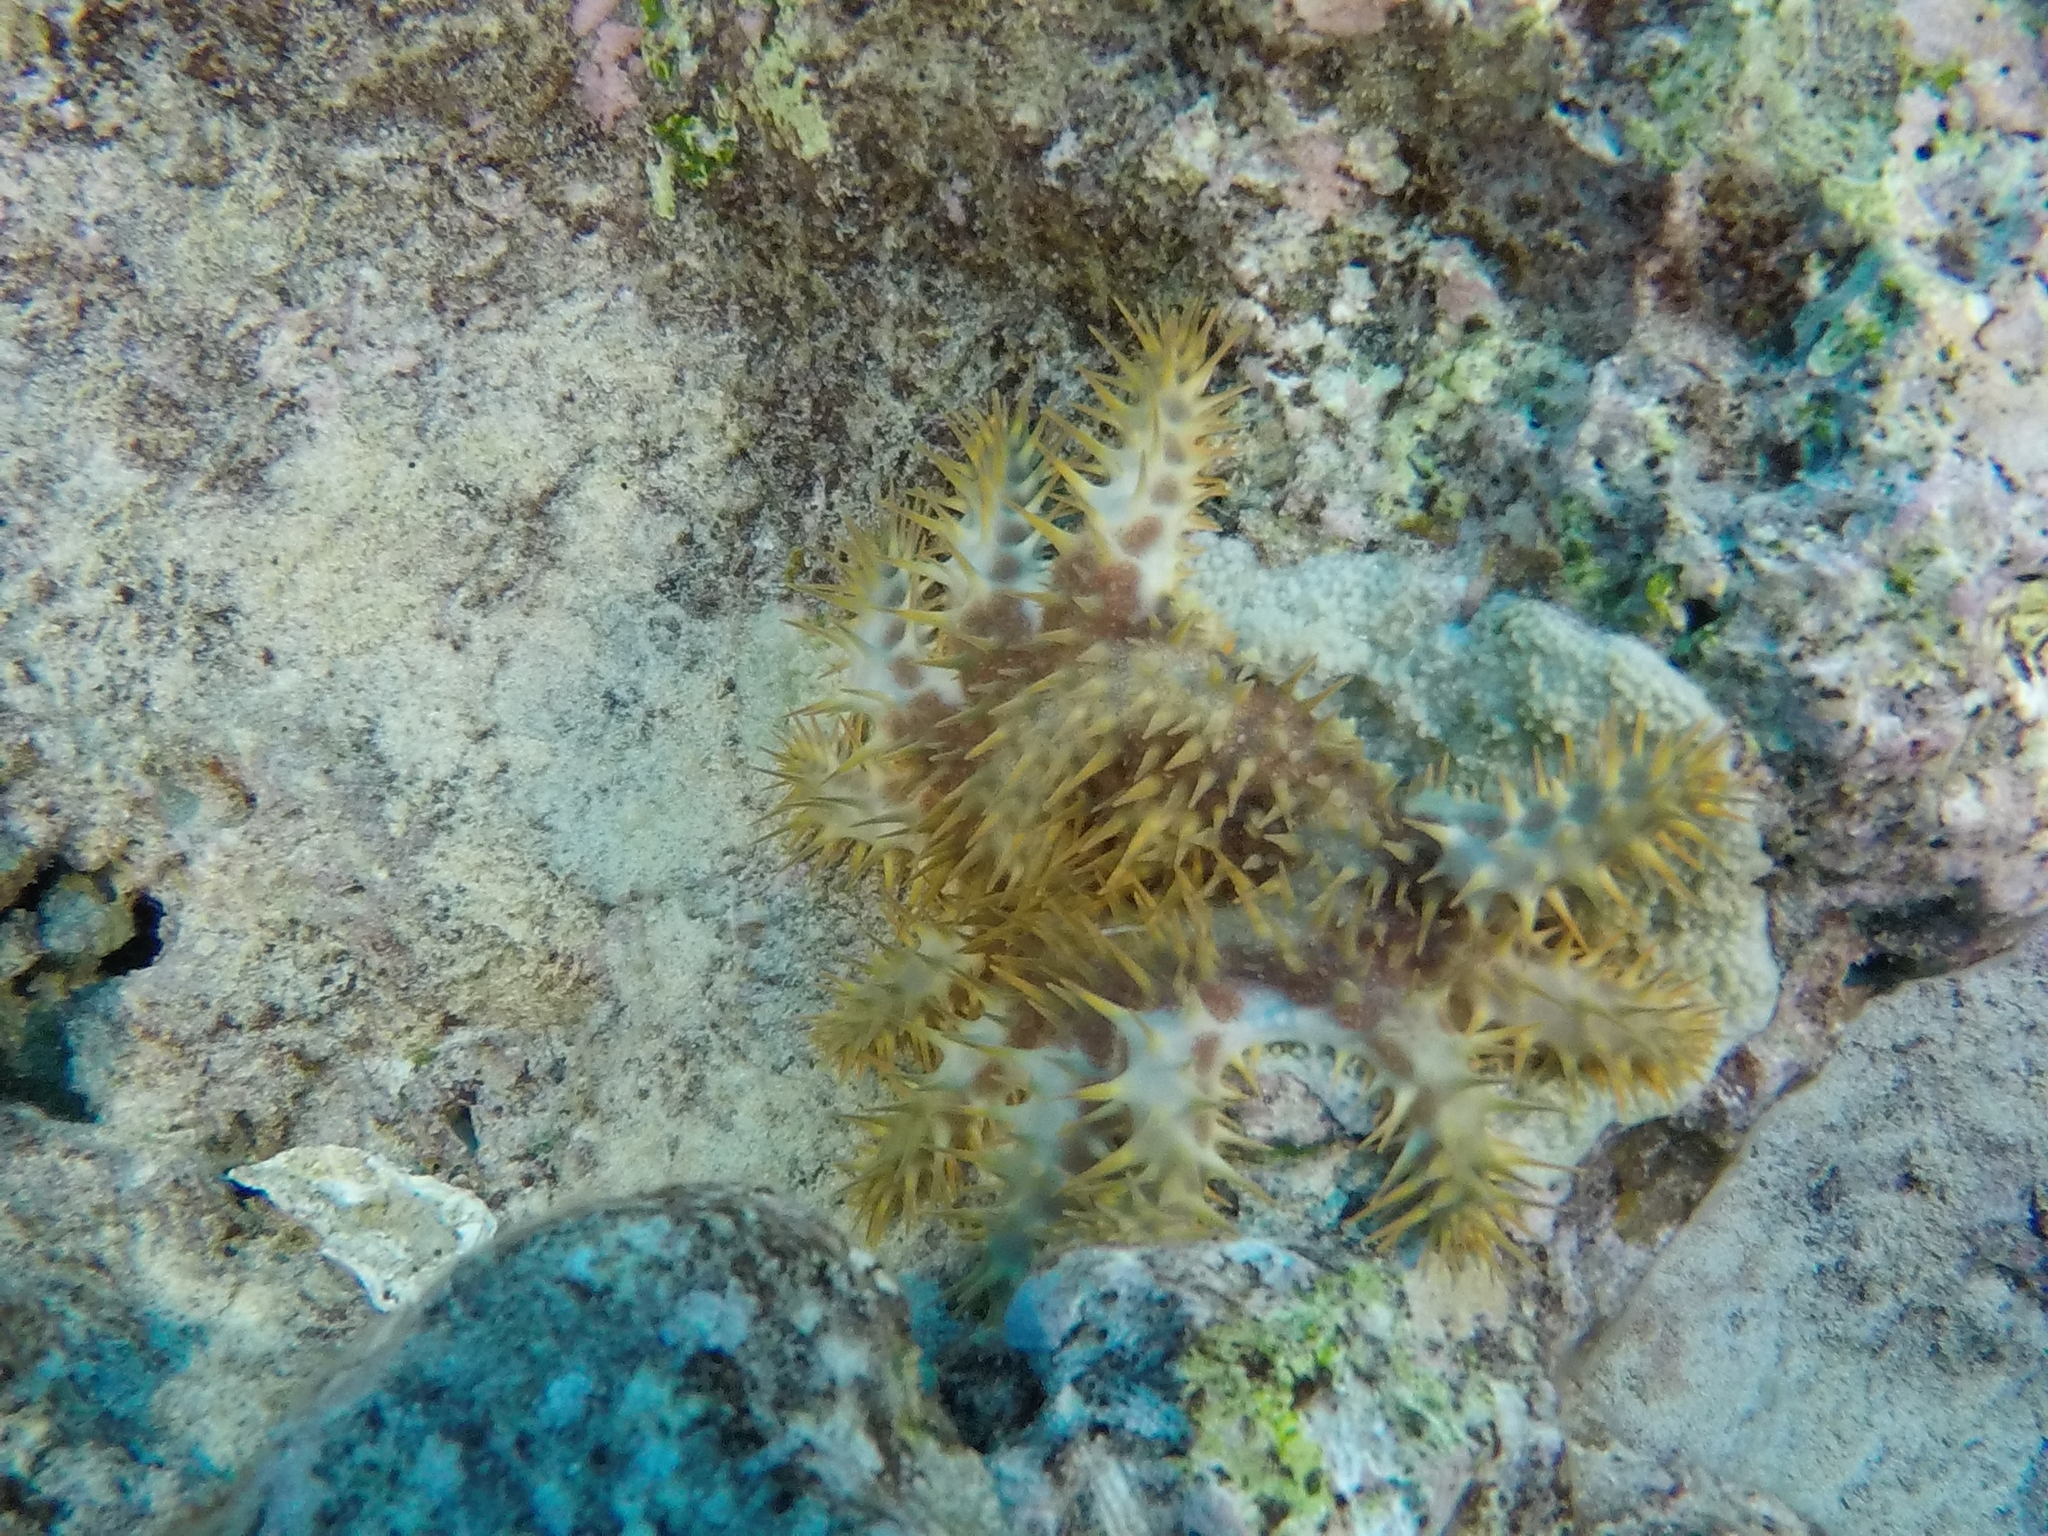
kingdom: Animalia
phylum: Echinodermata
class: Asteroidea
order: Valvatida
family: Acanthasteridae
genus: Acanthaster
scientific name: Acanthaster planci
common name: Crown-of-thorns
